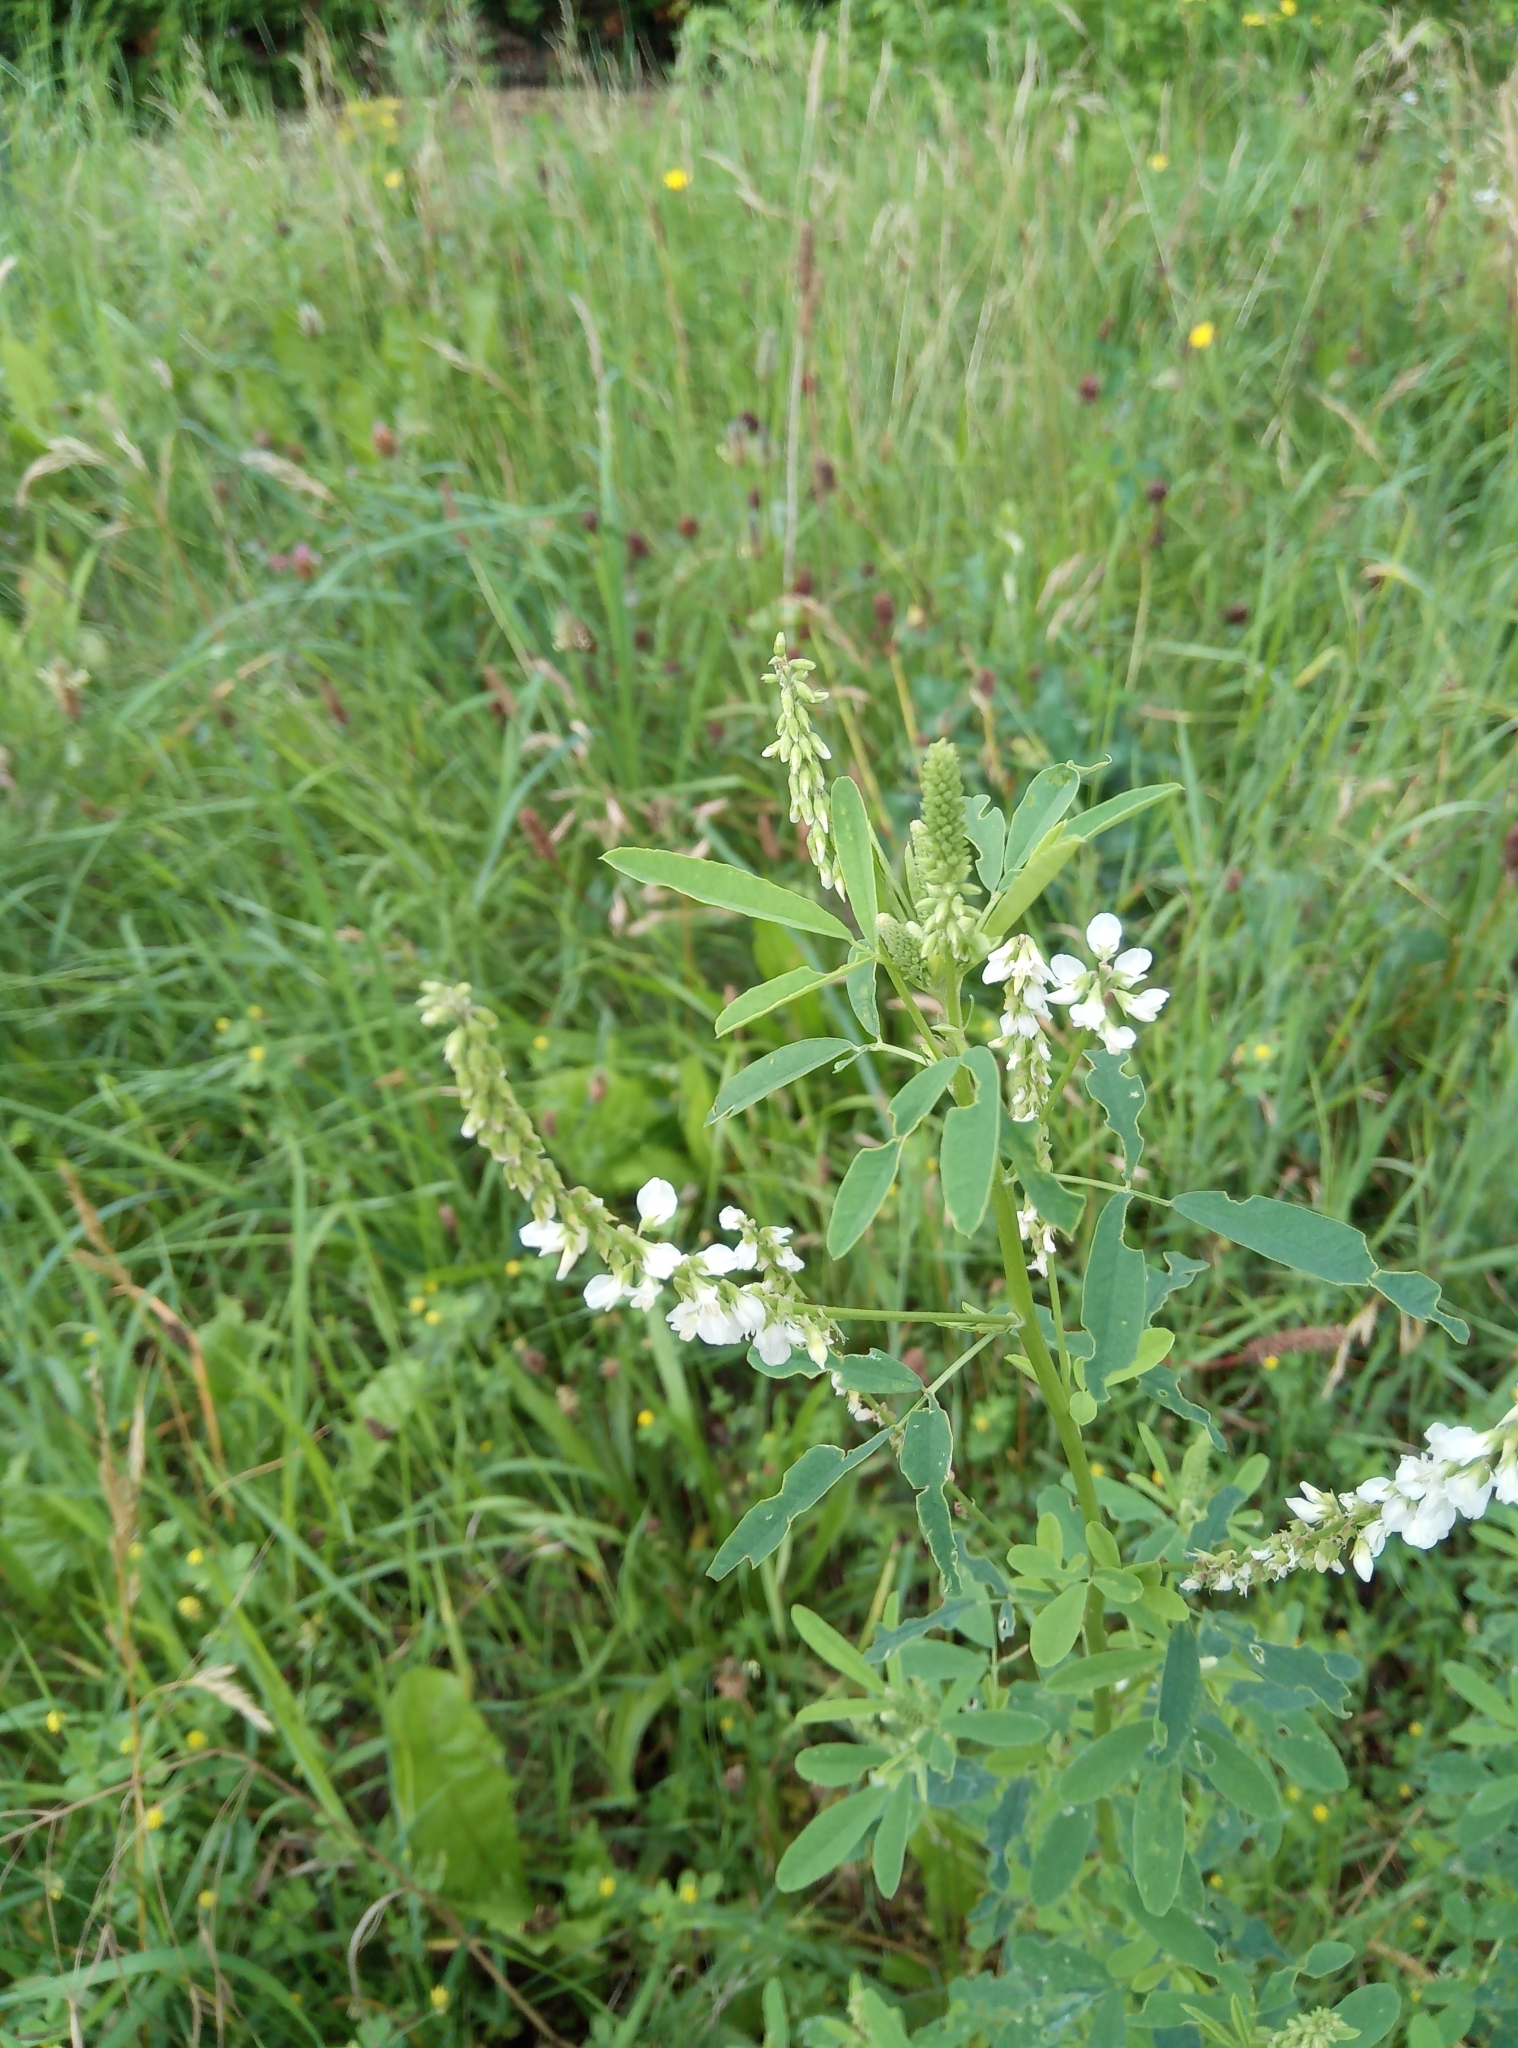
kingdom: Plantae
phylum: Tracheophyta
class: Magnoliopsida
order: Fabales
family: Fabaceae
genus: Melilotus
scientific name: Melilotus albus
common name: White melilot
